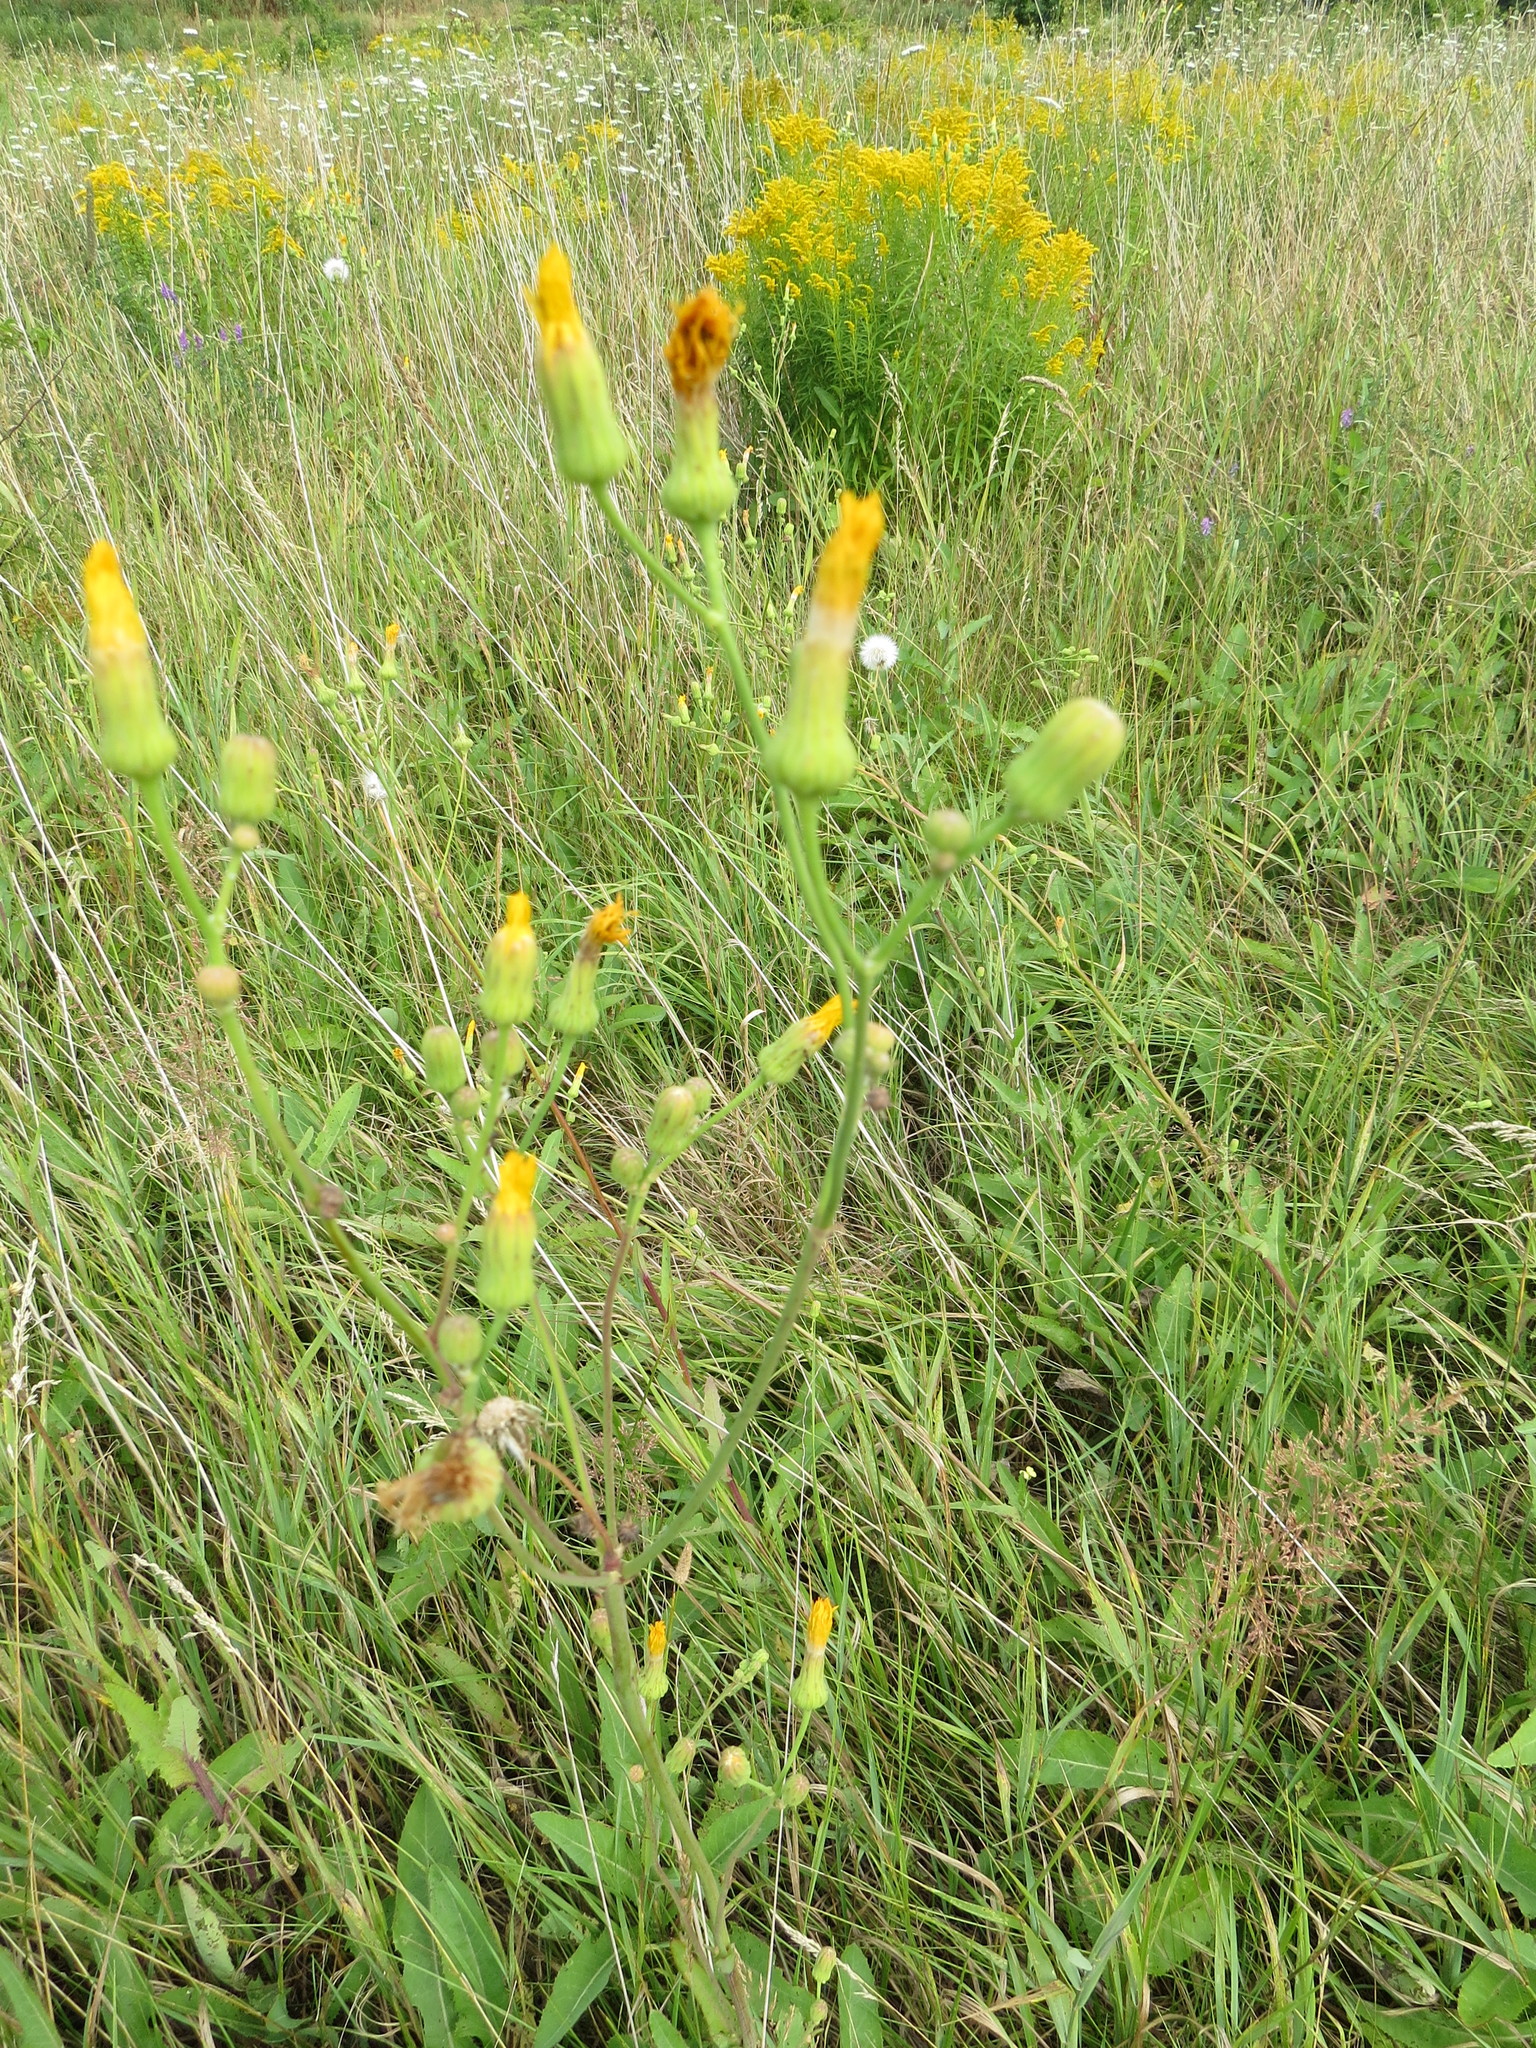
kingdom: Plantae
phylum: Tracheophyta
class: Magnoliopsida
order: Asterales
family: Asteraceae
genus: Sonchus
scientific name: Sonchus arvensis
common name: Perennial sow-thistle
